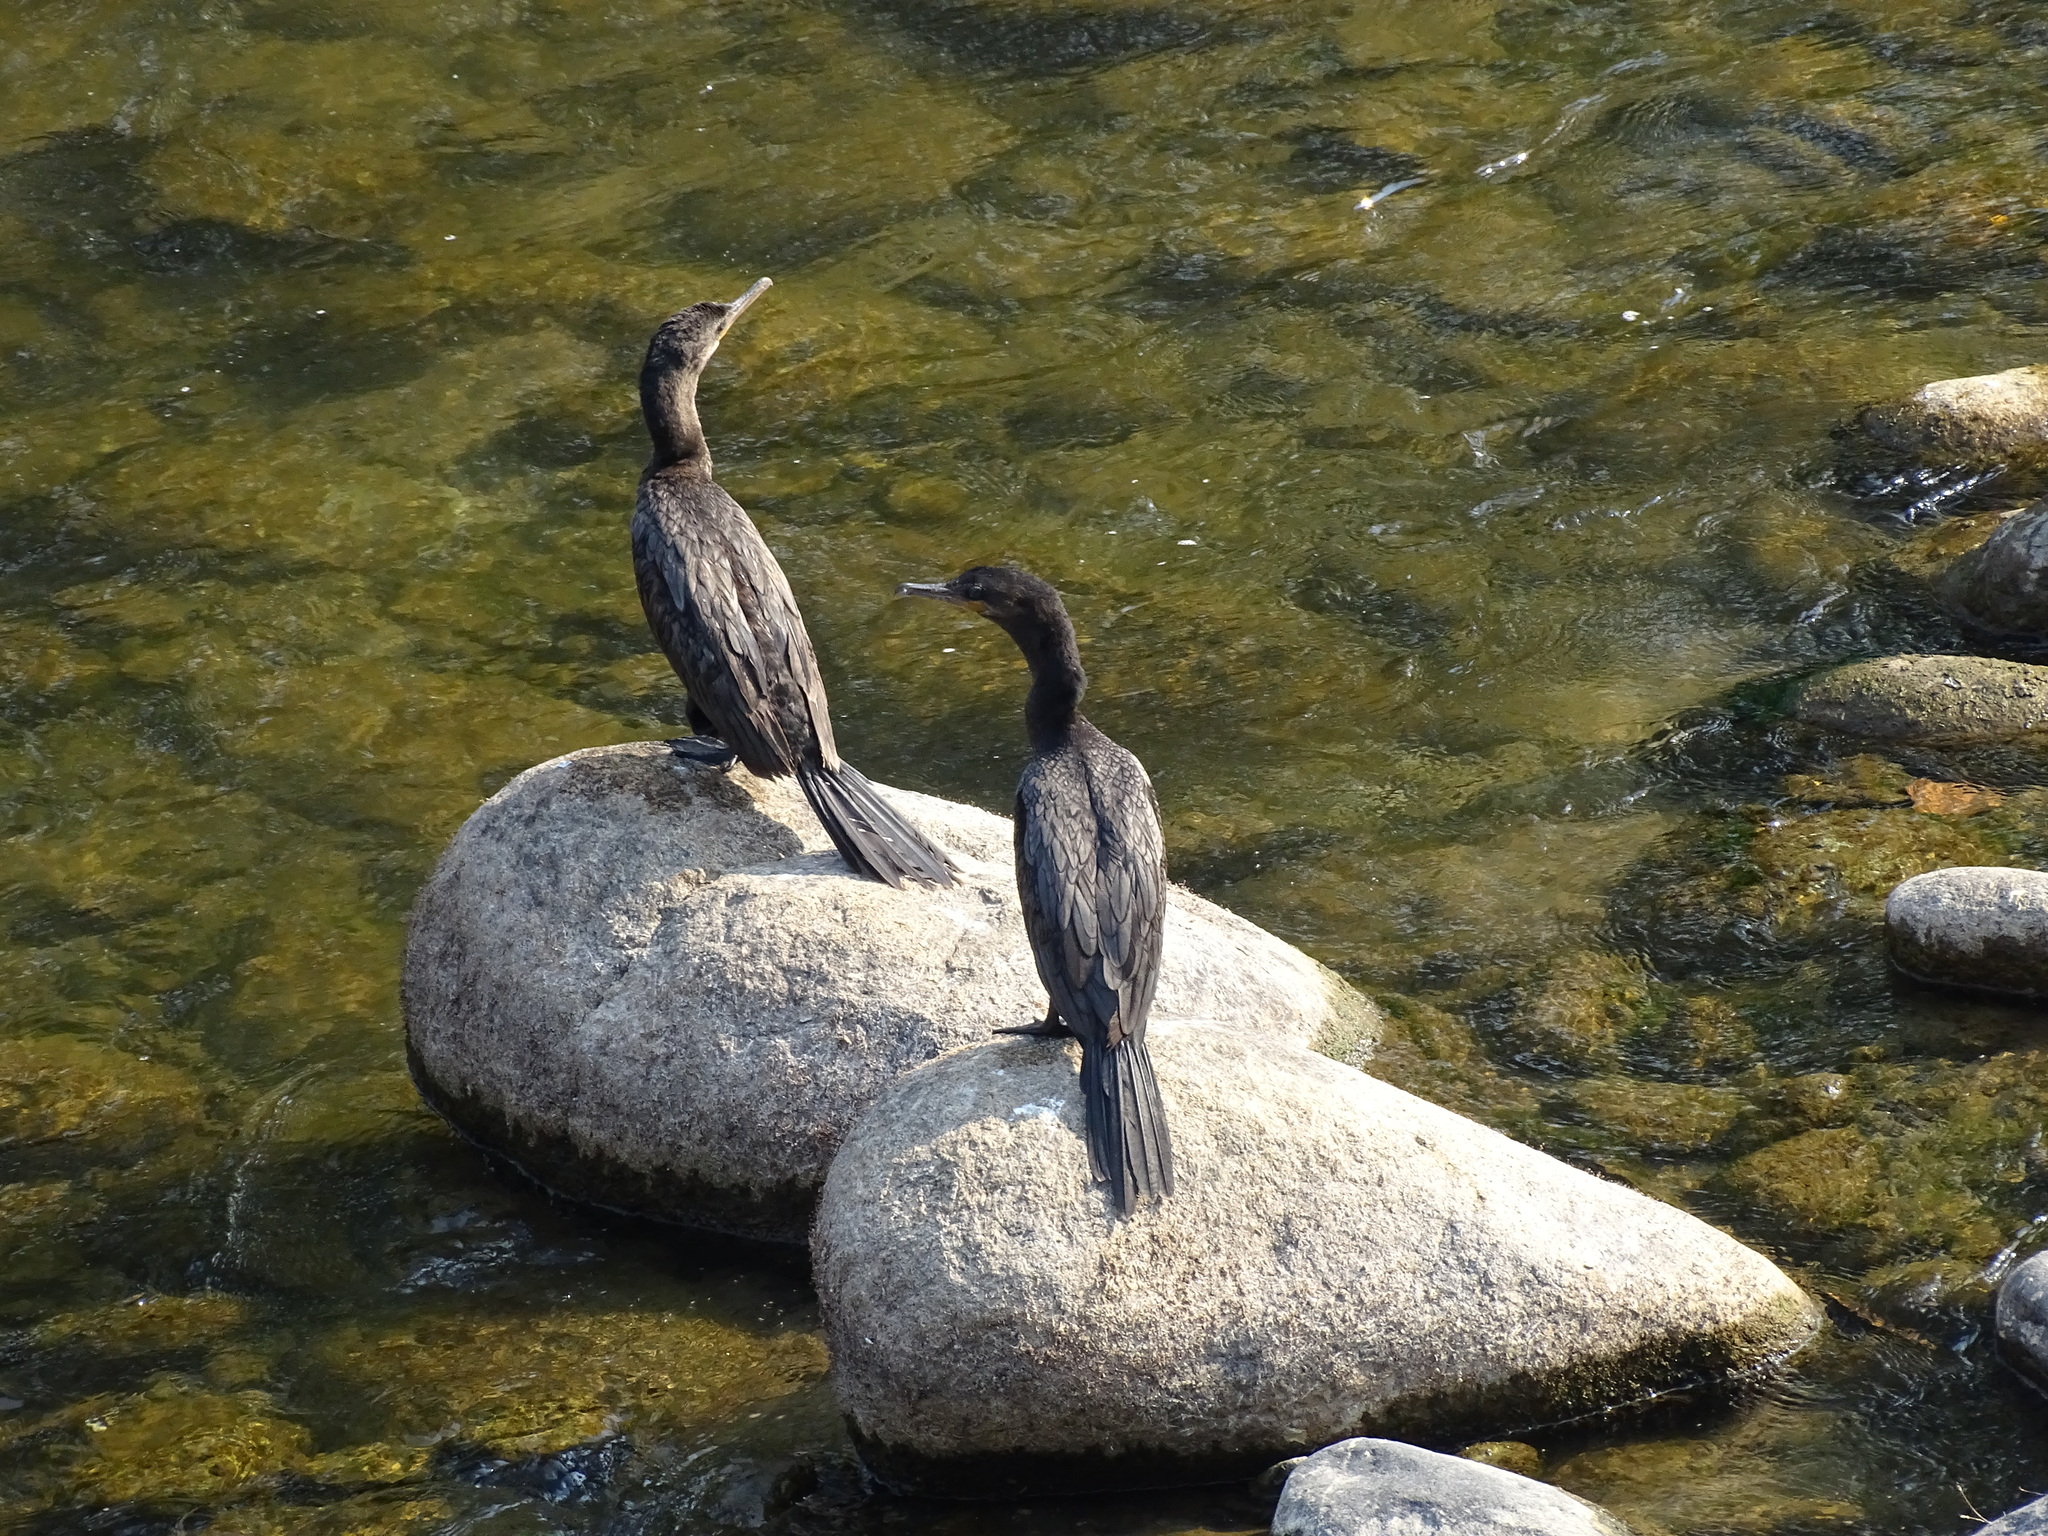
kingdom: Animalia
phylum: Chordata
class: Aves
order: Suliformes
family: Phalacrocoracidae
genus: Phalacrocorax
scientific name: Phalacrocorax brasilianus
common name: Neotropic cormorant
